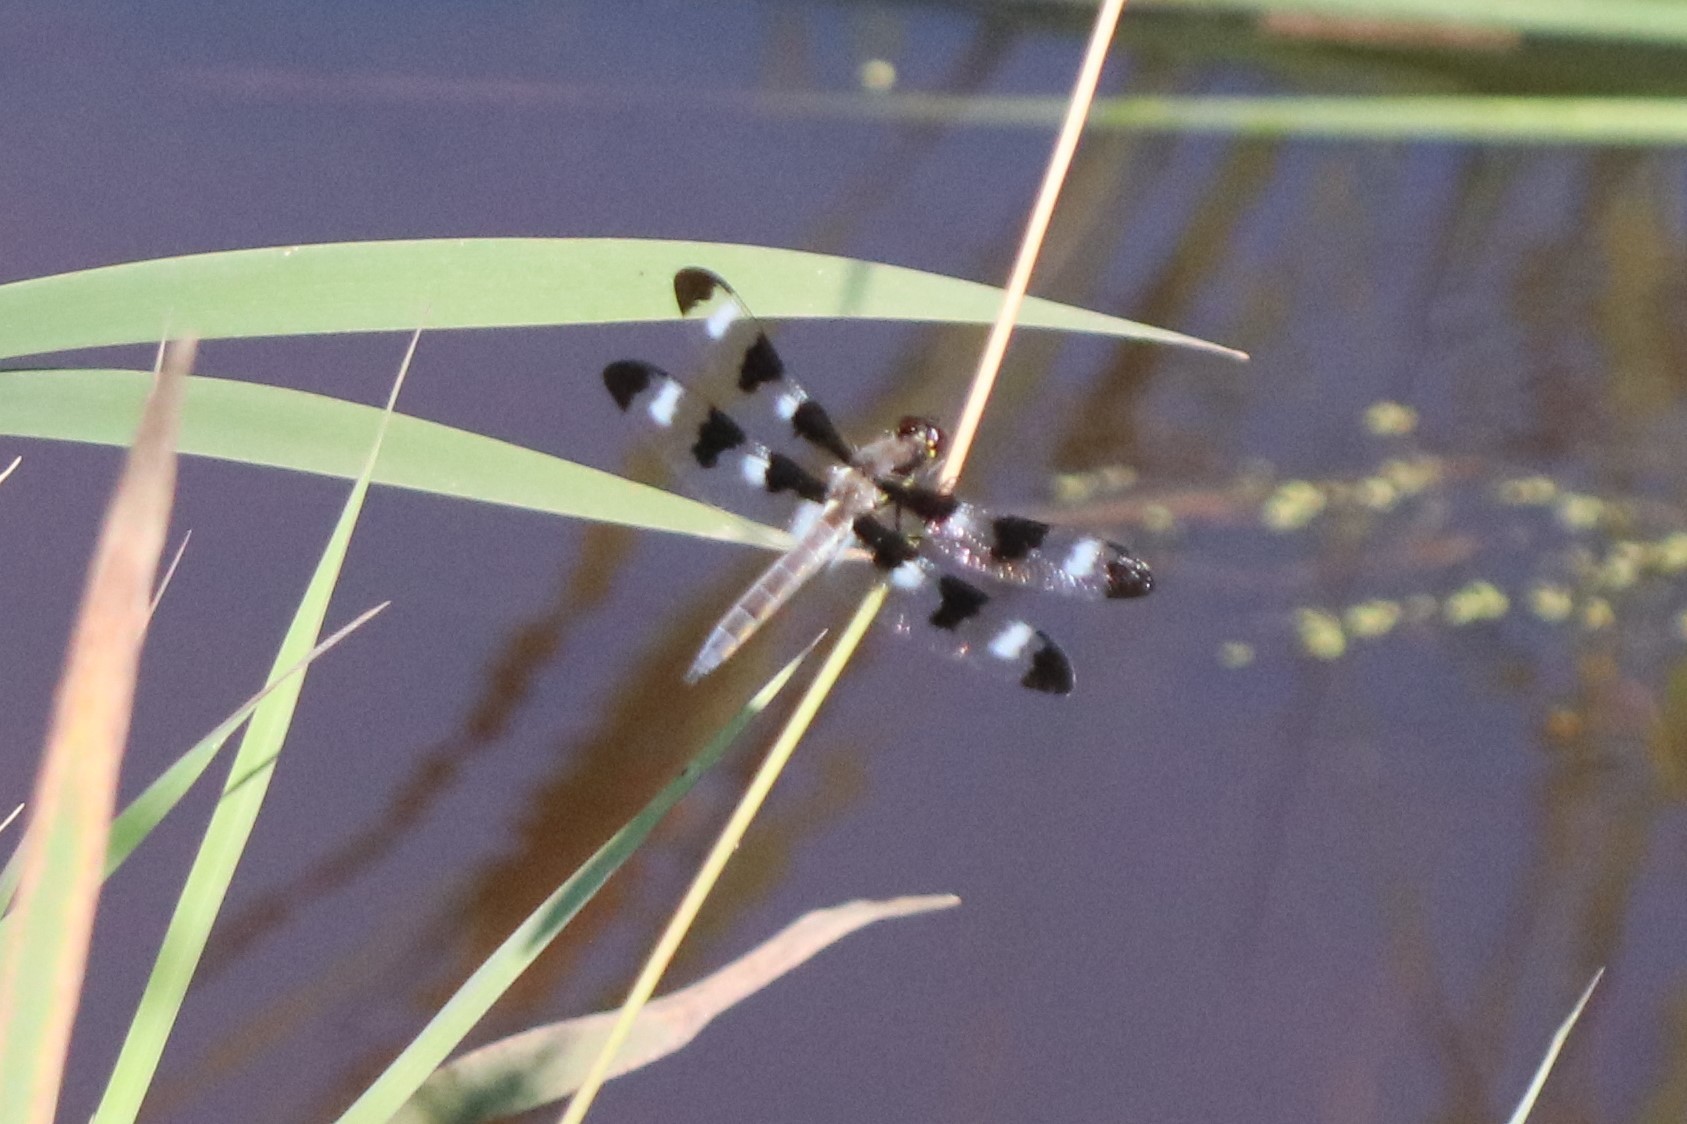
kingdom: Animalia
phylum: Arthropoda
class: Insecta
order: Odonata
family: Libellulidae
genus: Libellula
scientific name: Libellula pulchella
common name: Twelve-spotted skimmer
